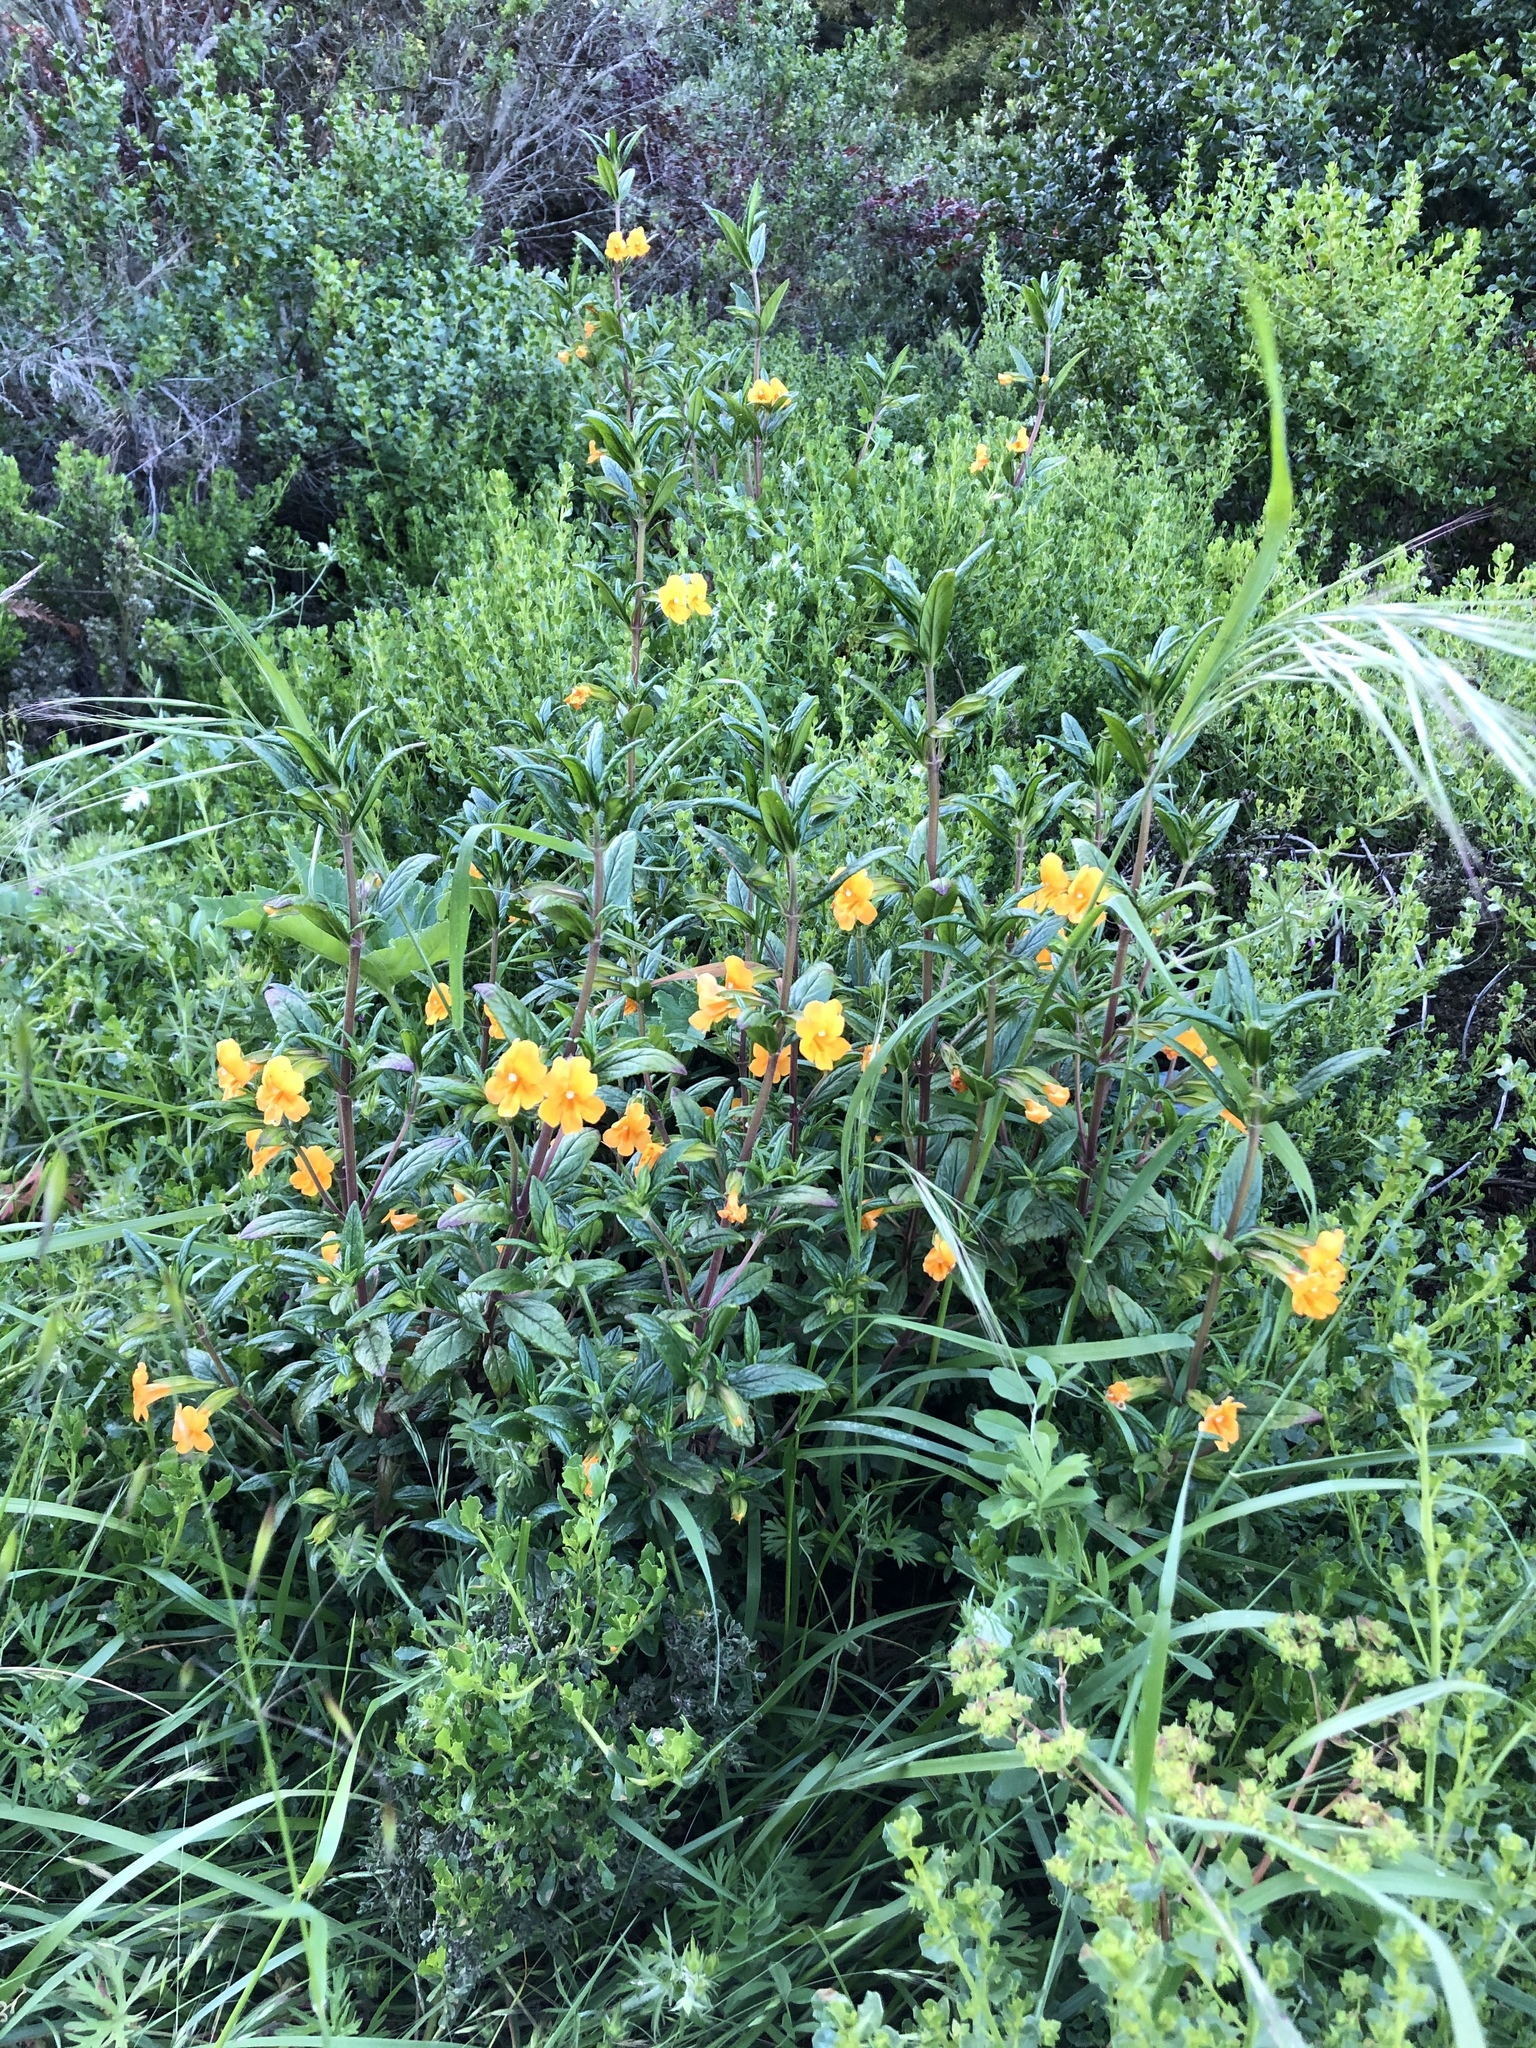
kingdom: Plantae
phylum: Tracheophyta
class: Magnoliopsida
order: Lamiales
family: Phrymaceae
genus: Diplacus
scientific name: Diplacus aurantiacus
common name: Bush monkey-flower
